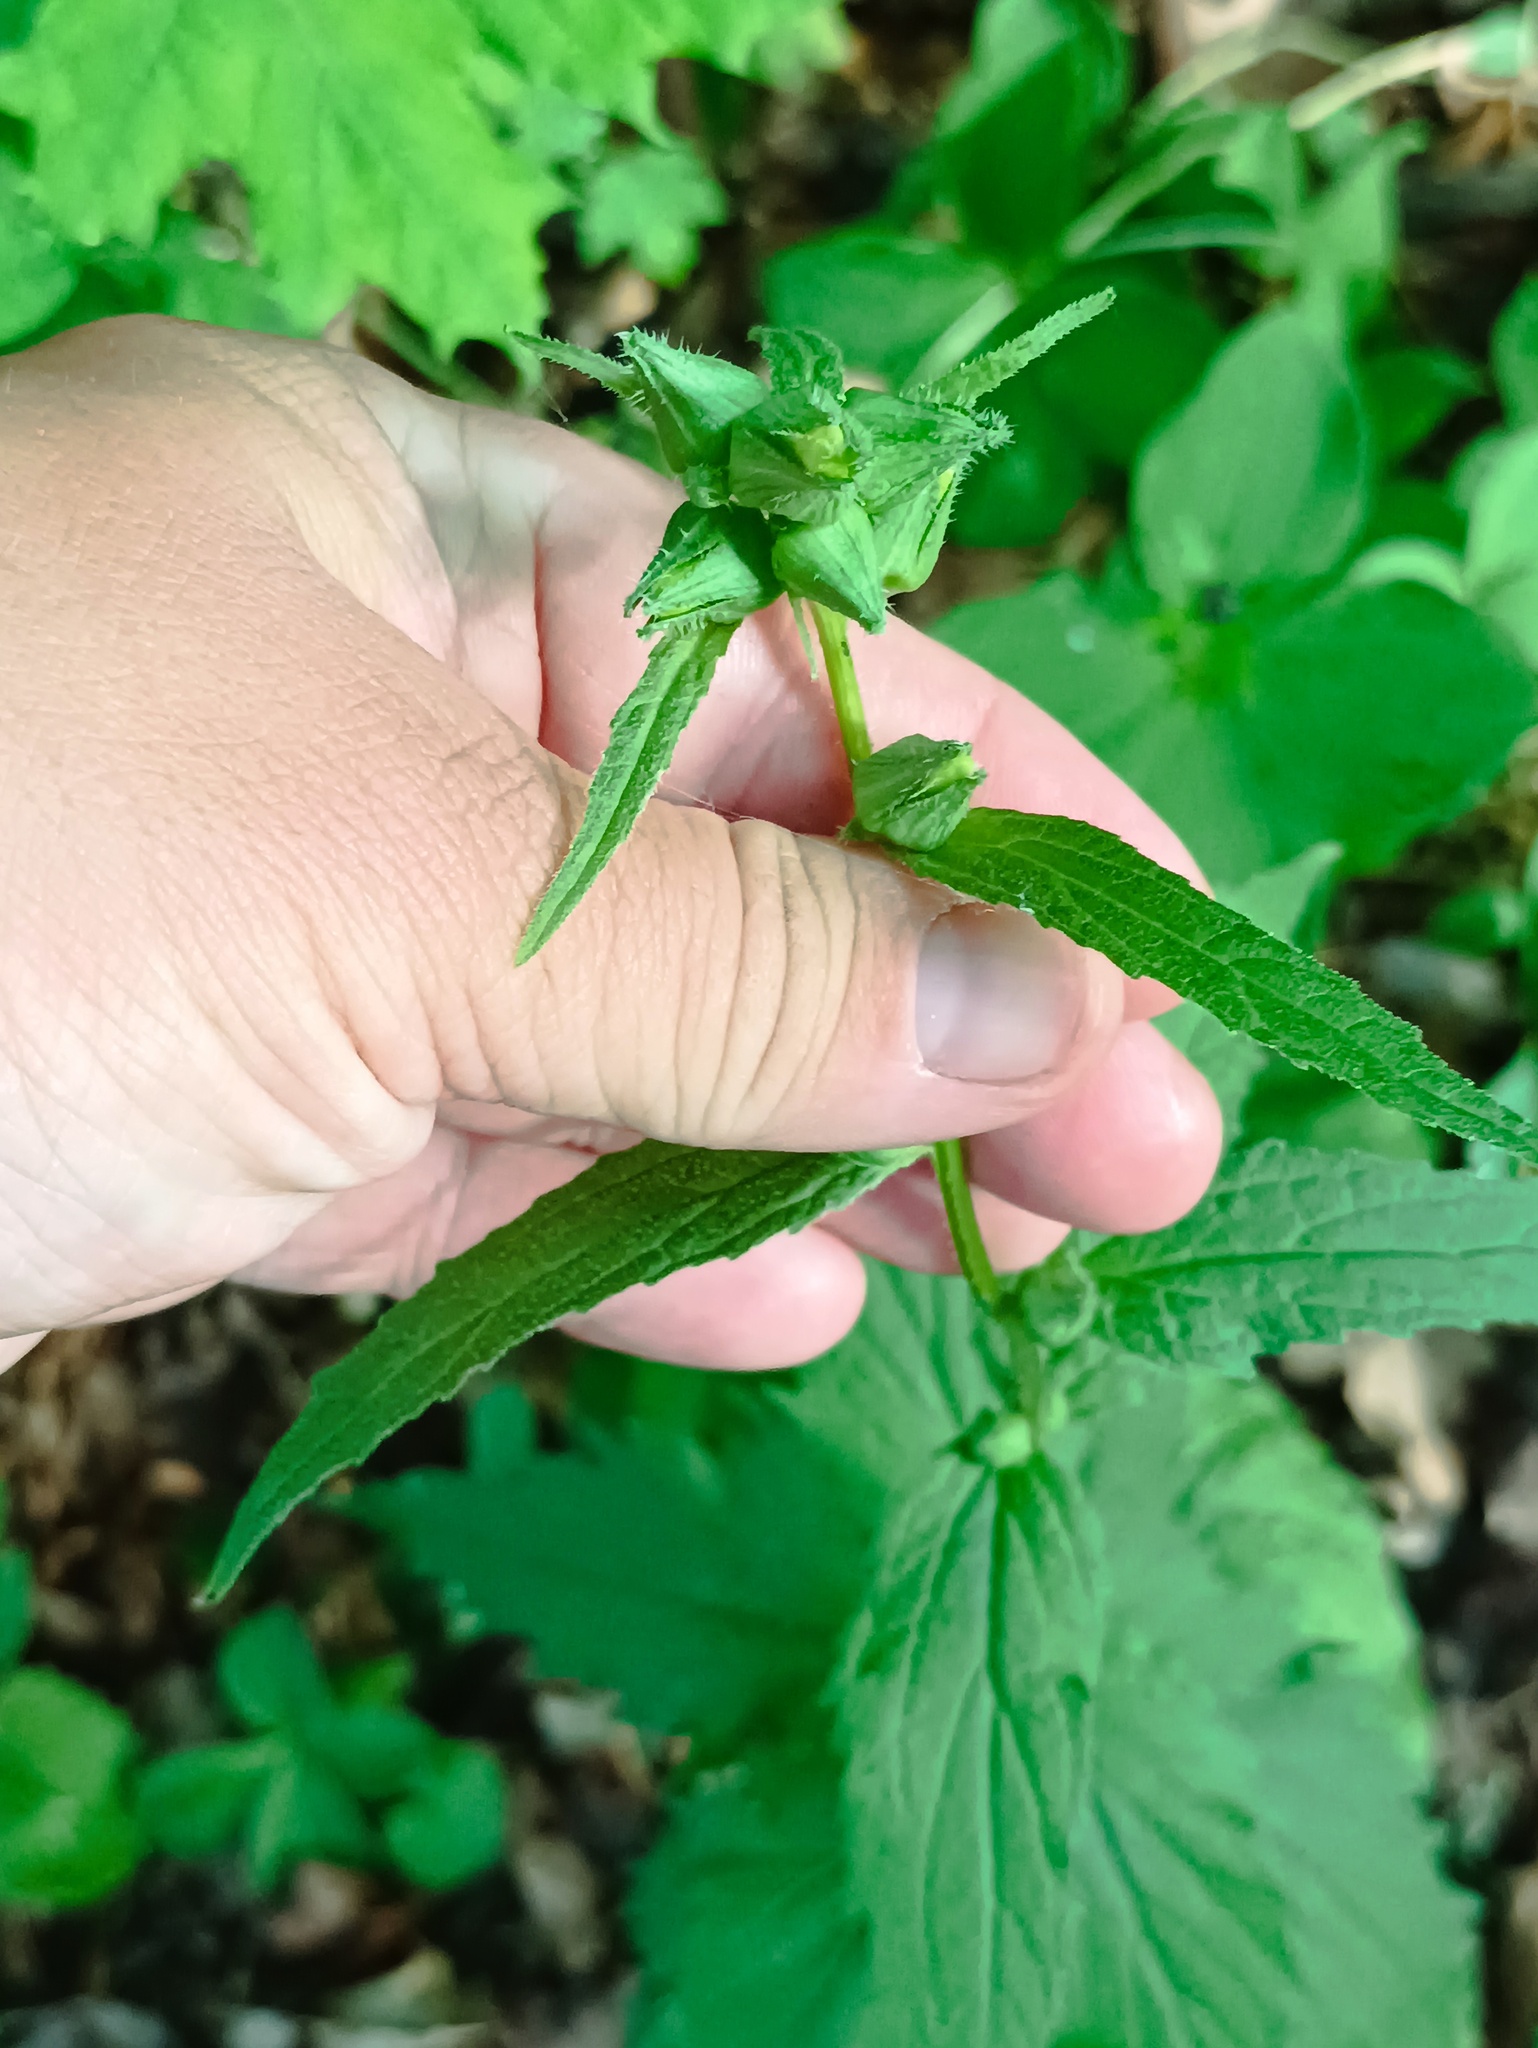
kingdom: Plantae
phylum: Tracheophyta
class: Magnoliopsida
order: Asterales
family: Campanulaceae
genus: Campanula
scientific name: Campanula trachelium
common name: Nettle-leaved bellflower
